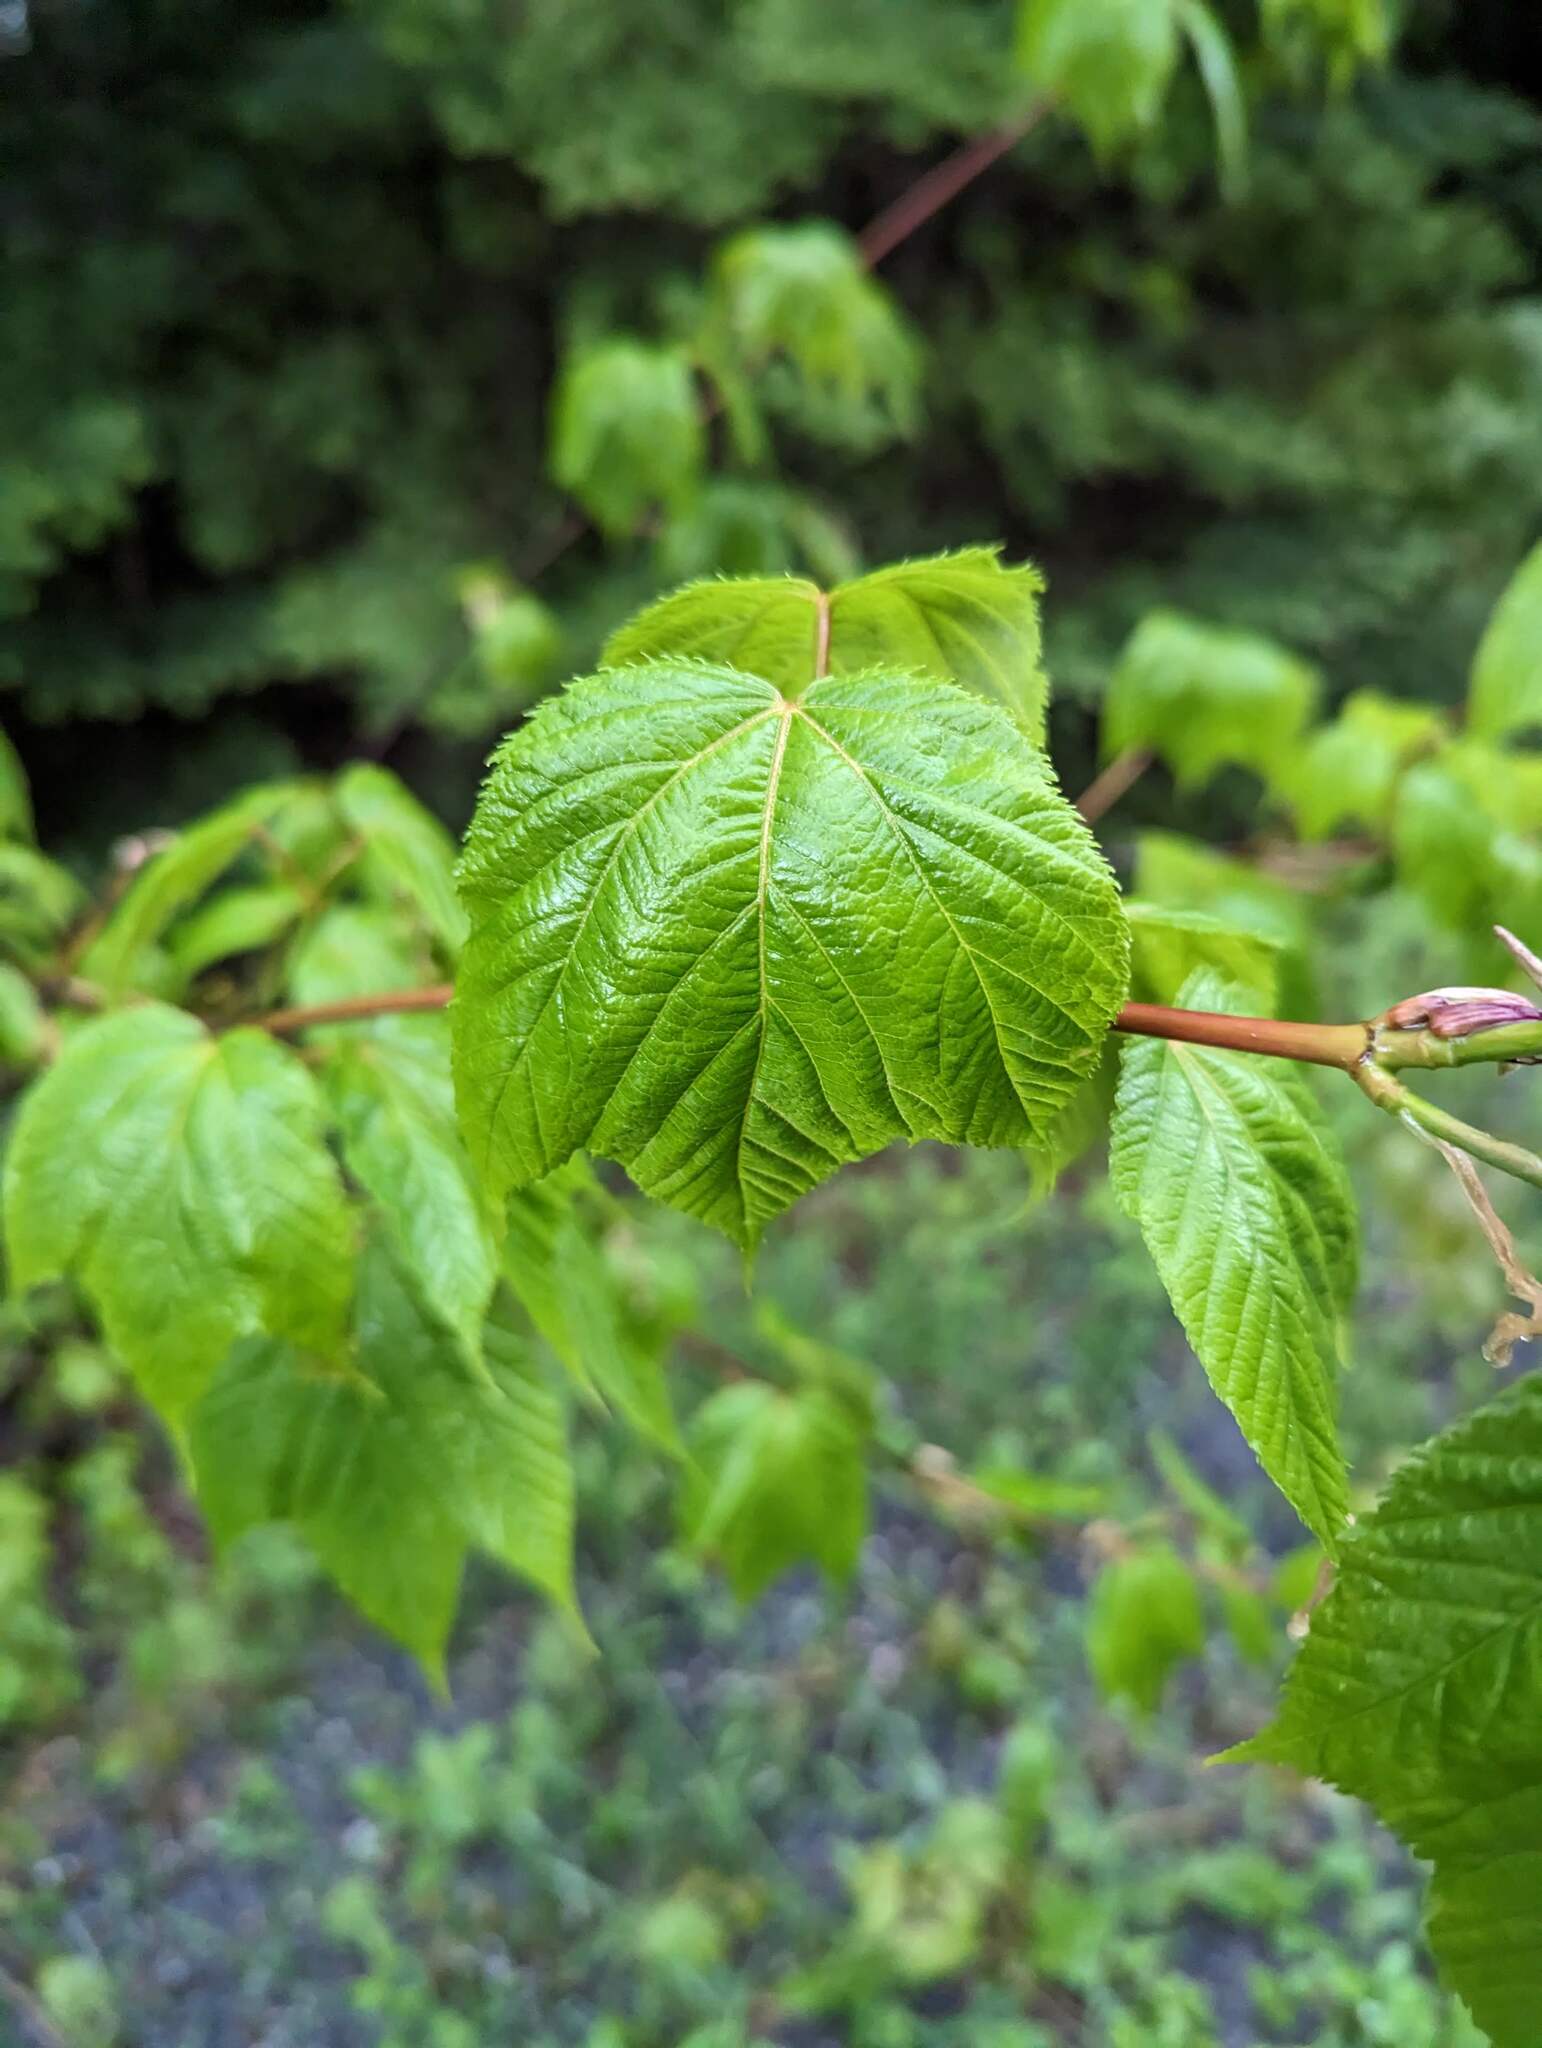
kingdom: Plantae
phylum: Tracheophyta
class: Magnoliopsida
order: Sapindales
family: Sapindaceae
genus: Acer
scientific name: Acer pensylvanicum
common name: Moosewood
